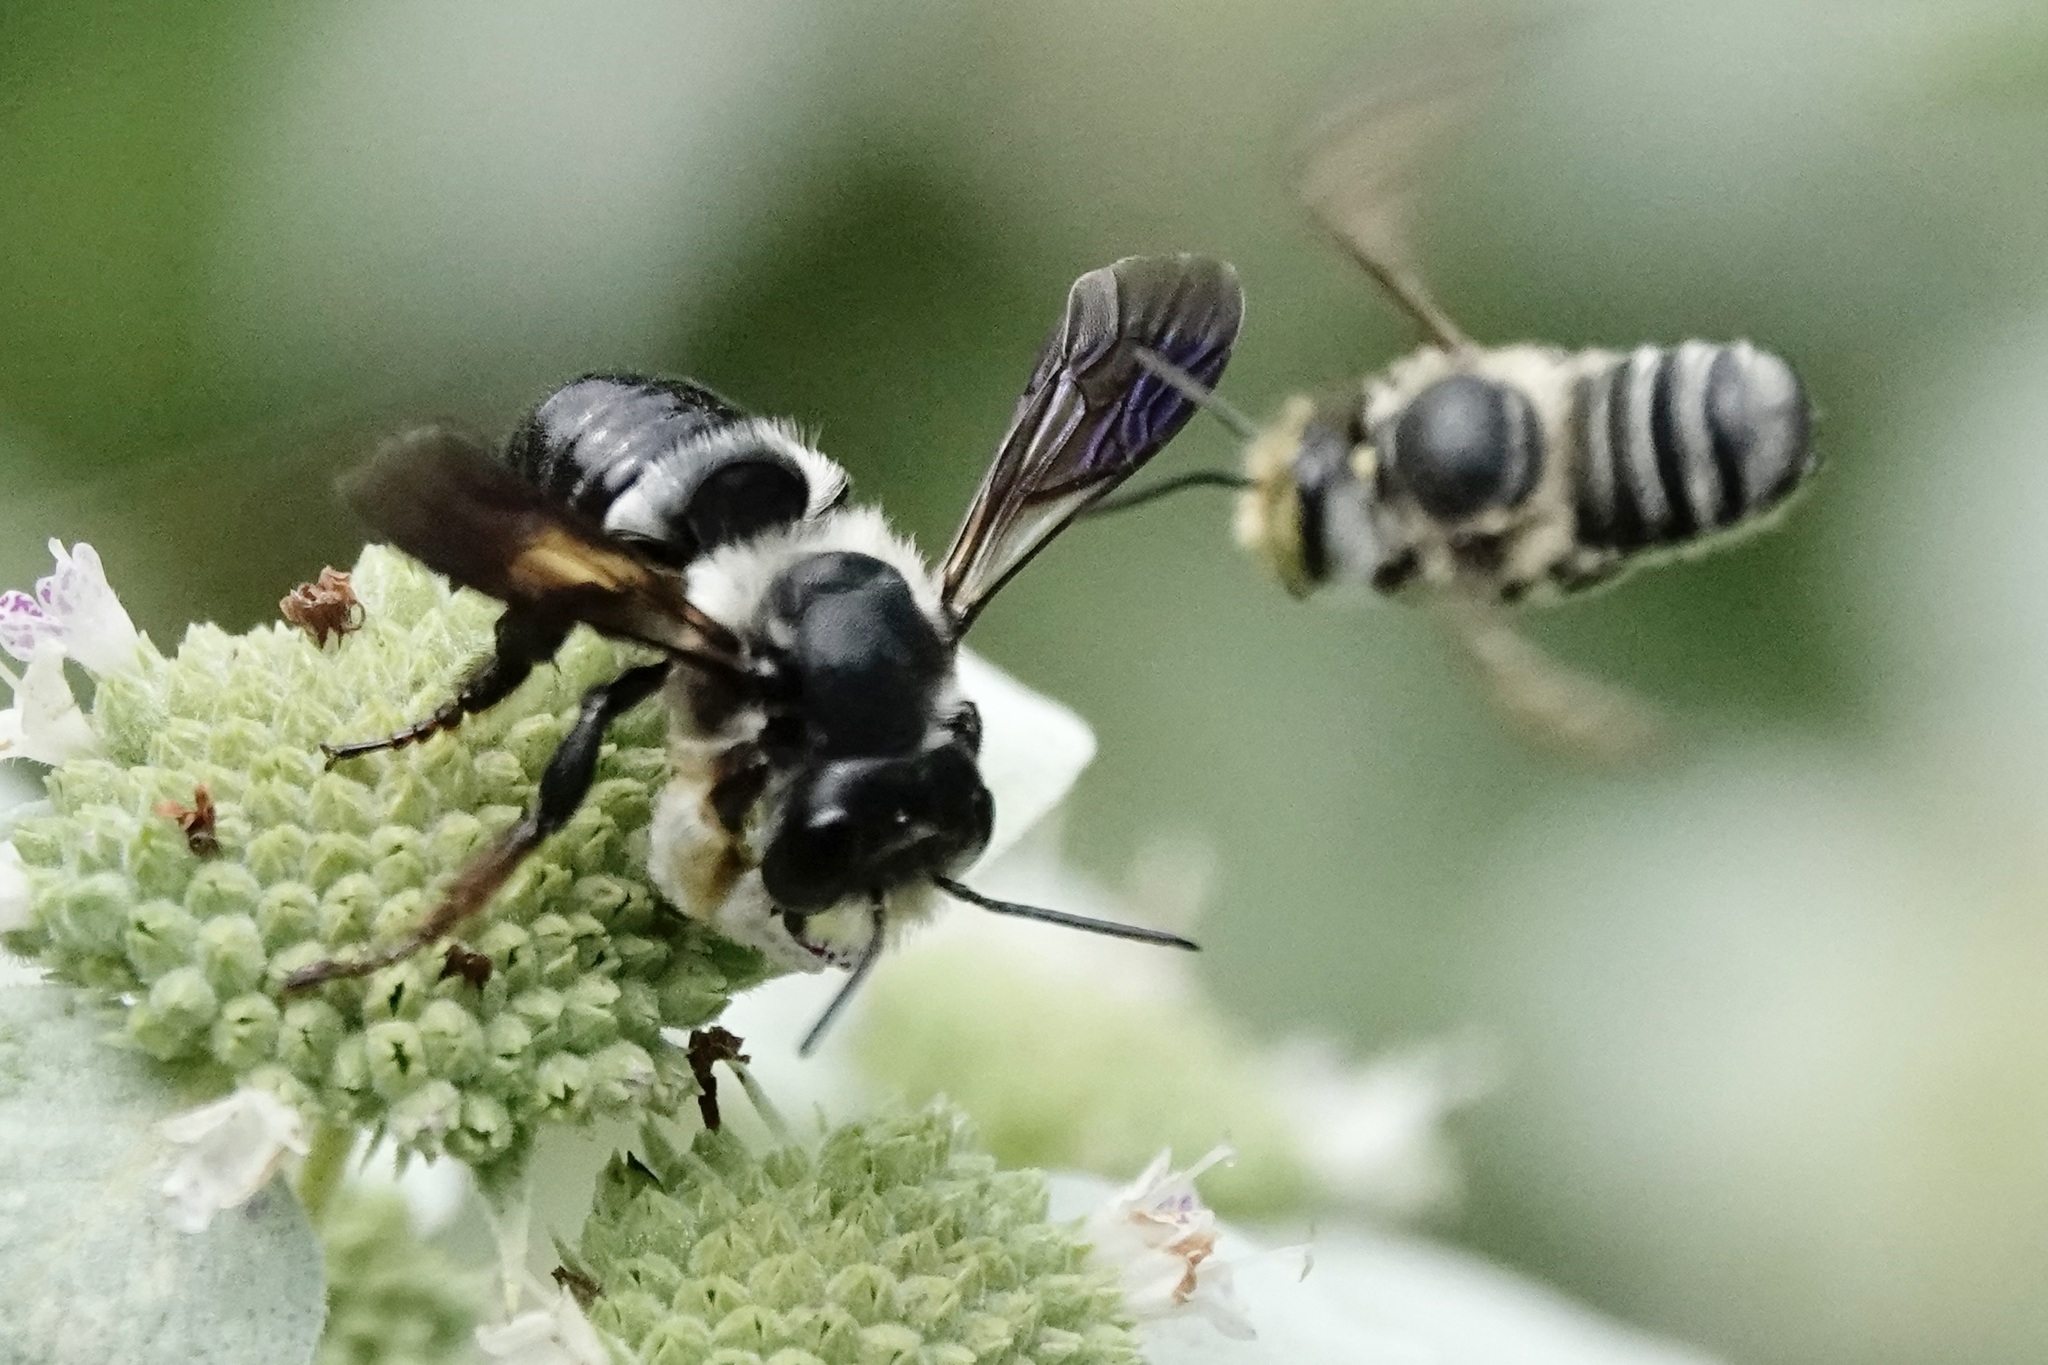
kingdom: Animalia
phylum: Arthropoda
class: Insecta
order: Hymenoptera
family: Megachilidae
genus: Megachile
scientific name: Megachile xylocopoides
